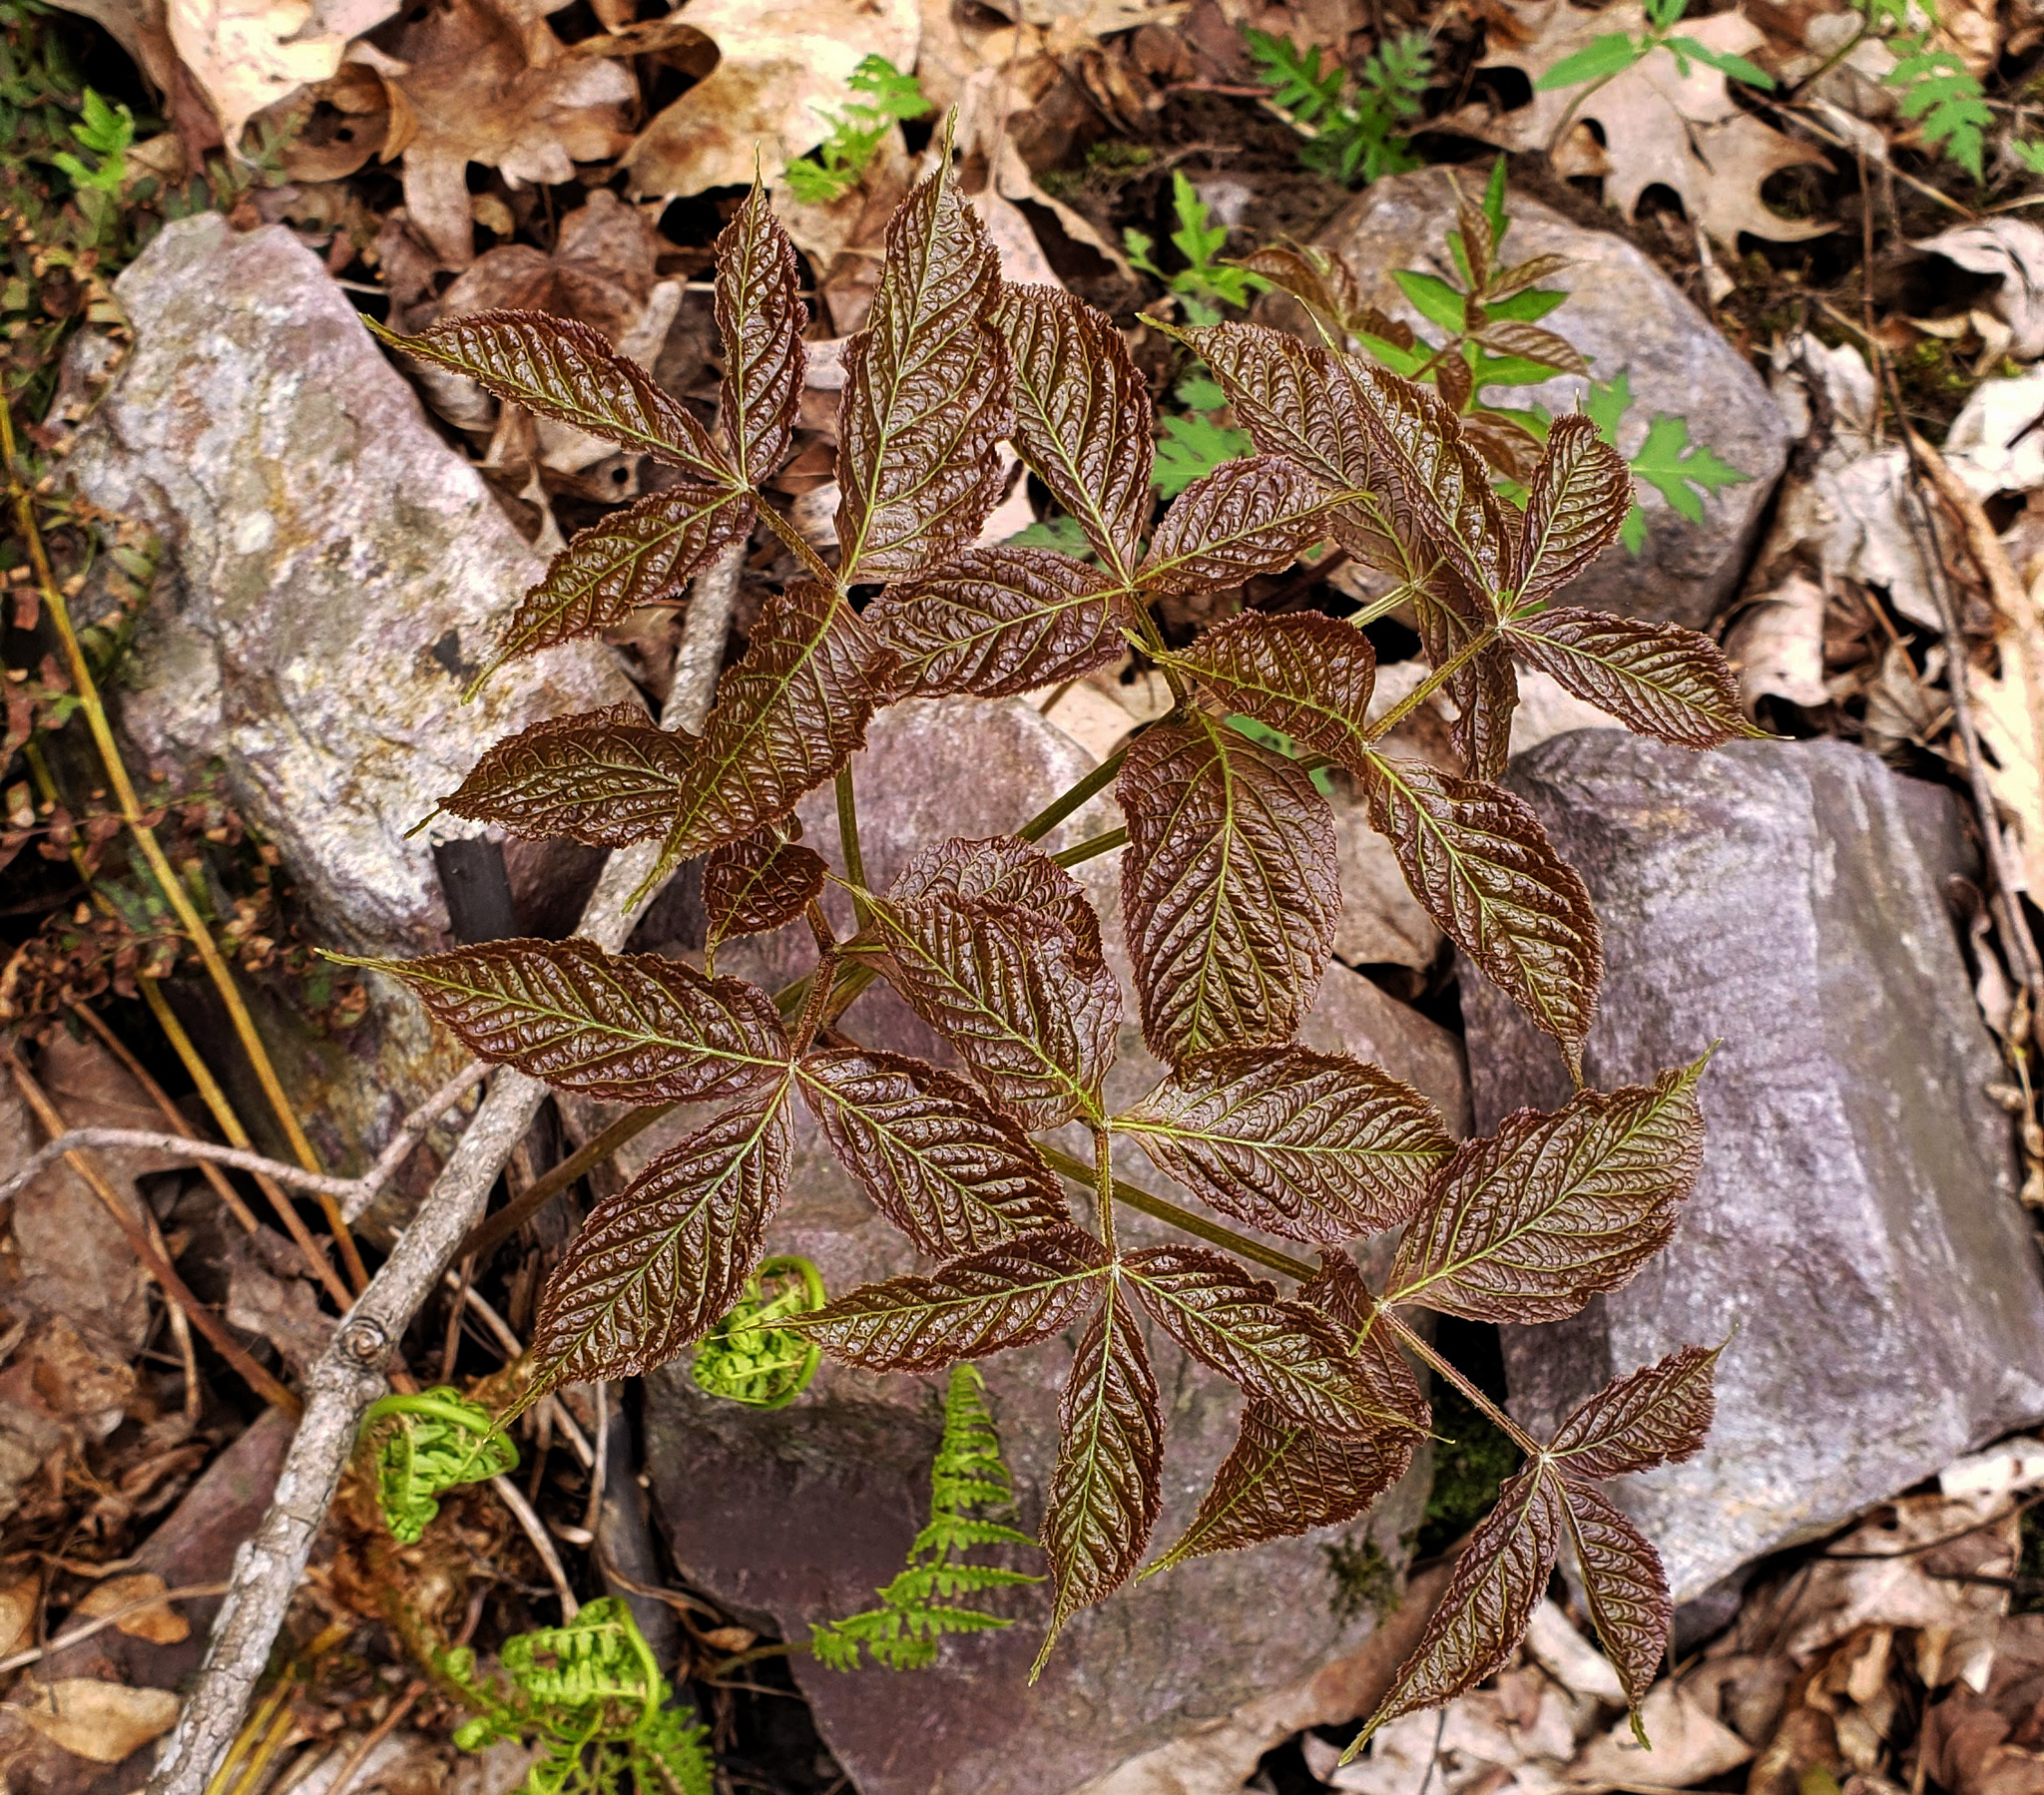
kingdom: Plantae
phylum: Tracheophyta
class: Magnoliopsida
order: Apiales
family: Araliaceae
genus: Aralia
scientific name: Aralia nudicaulis
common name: Wild sarsaparilla
